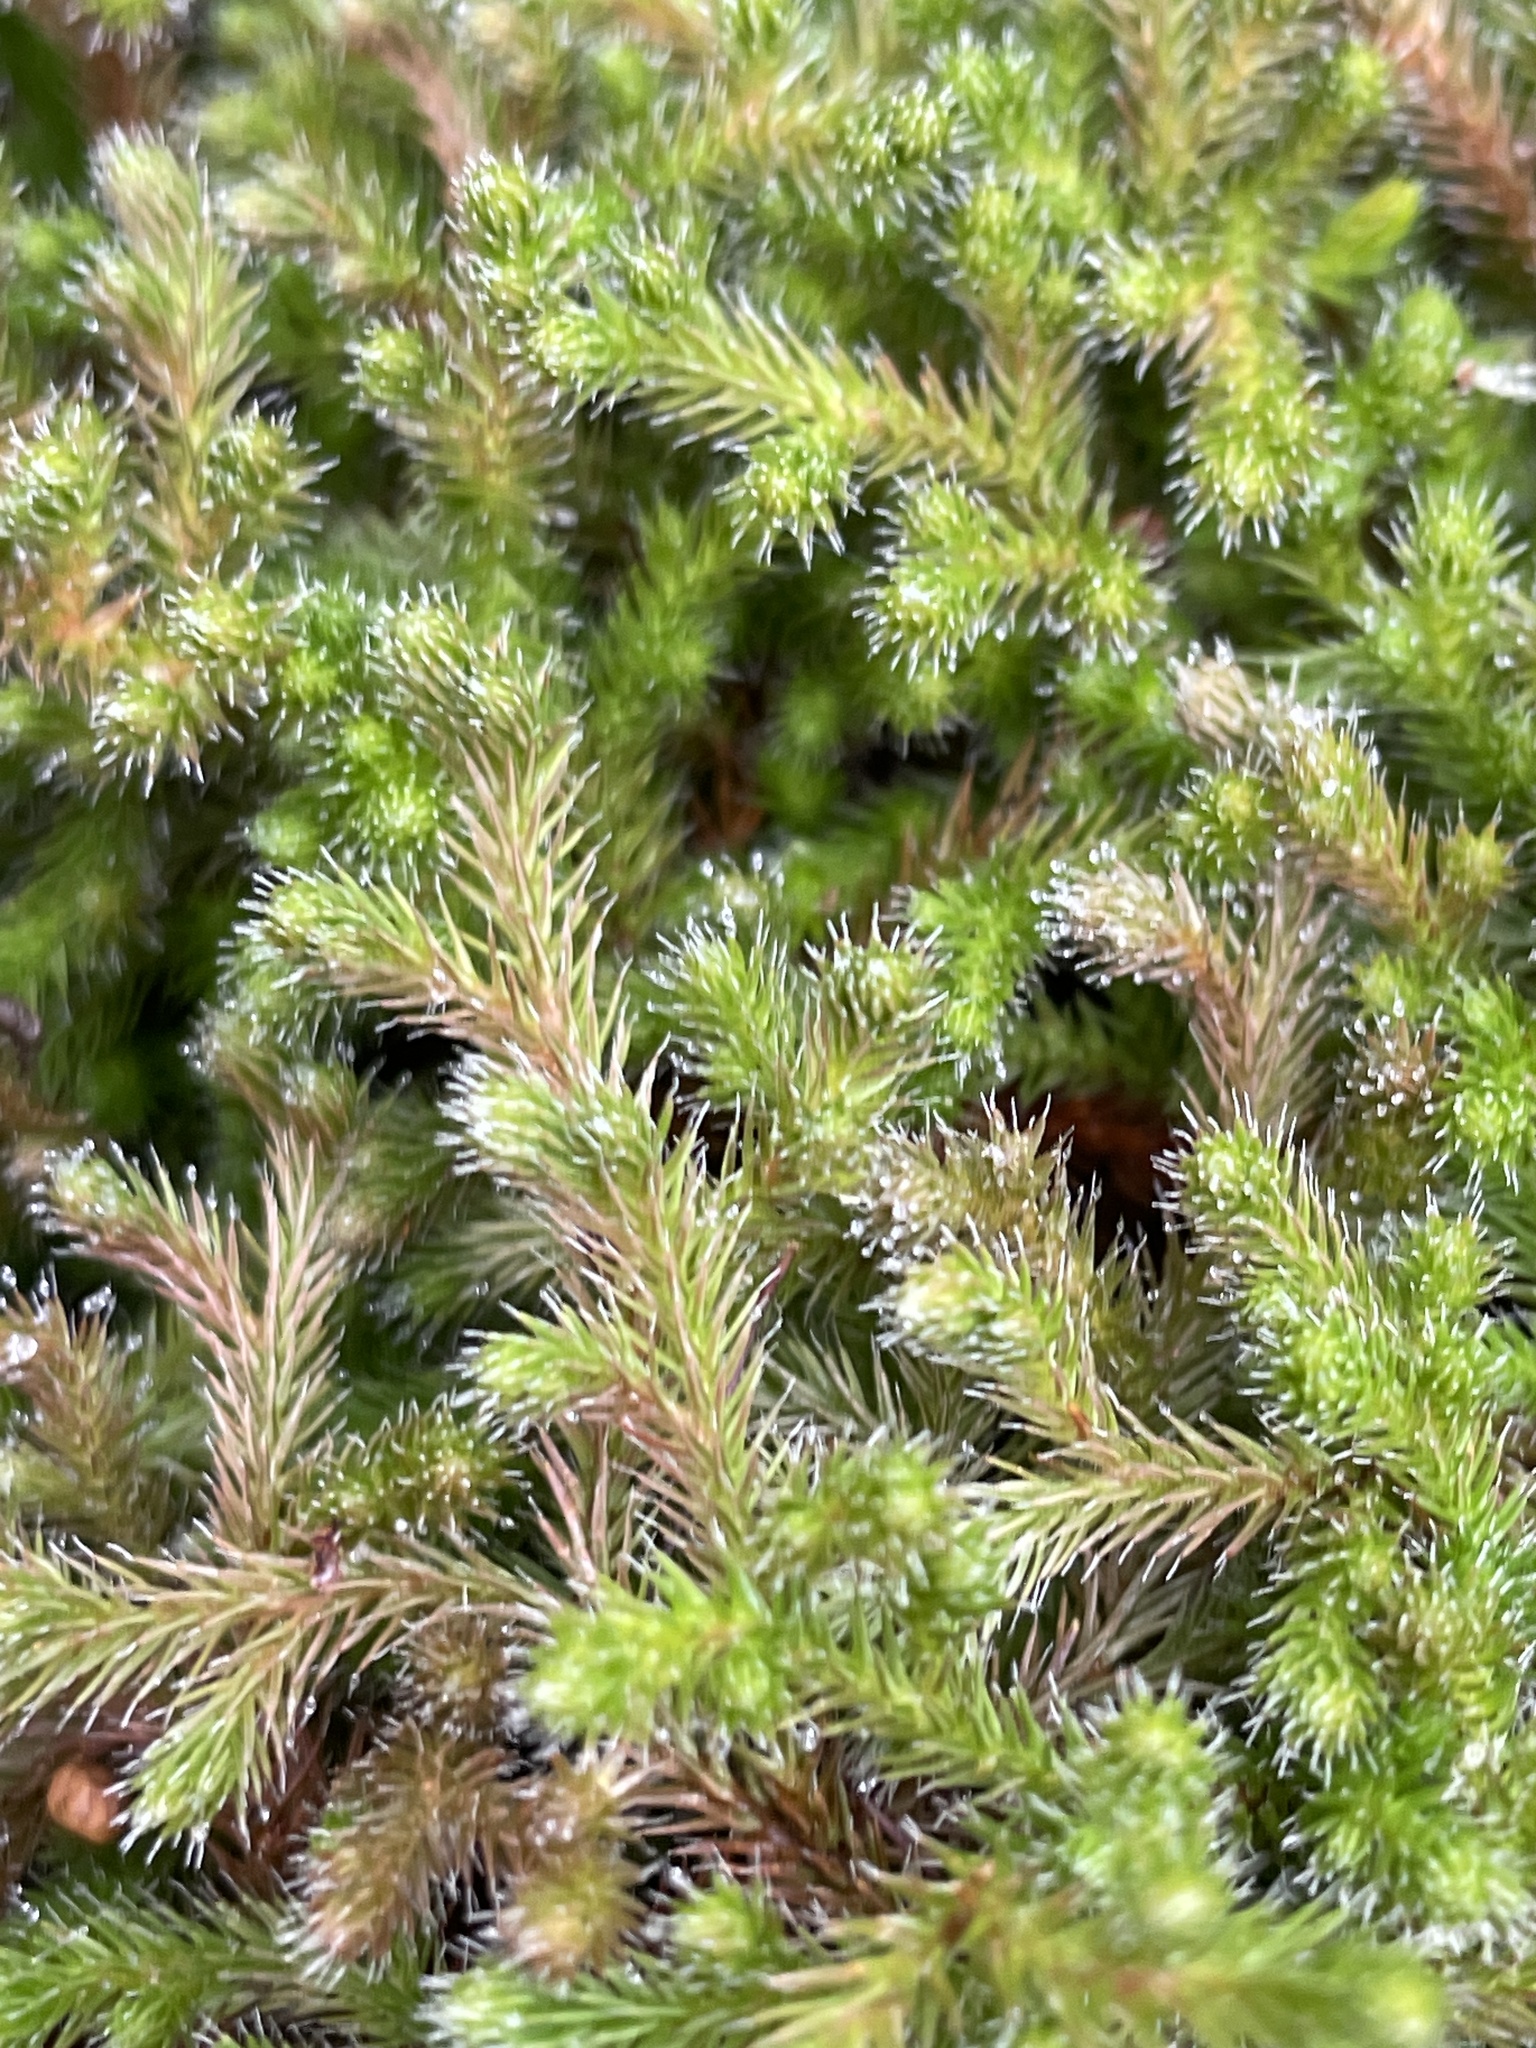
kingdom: Plantae
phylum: Tracheophyta
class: Lycopodiopsida
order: Selaginellales
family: Selaginellaceae
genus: Selaginella
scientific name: Selaginella rupestris
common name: Dwarf spikemoss
